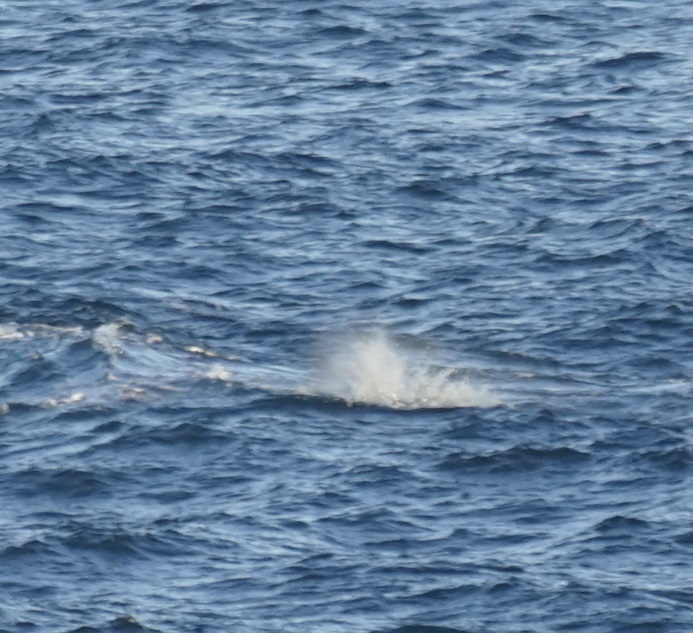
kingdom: Animalia
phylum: Chordata
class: Mammalia
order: Cetacea
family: Balaenopteridae
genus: Megaptera
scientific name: Megaptera novaeangliae
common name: Humpback whale
